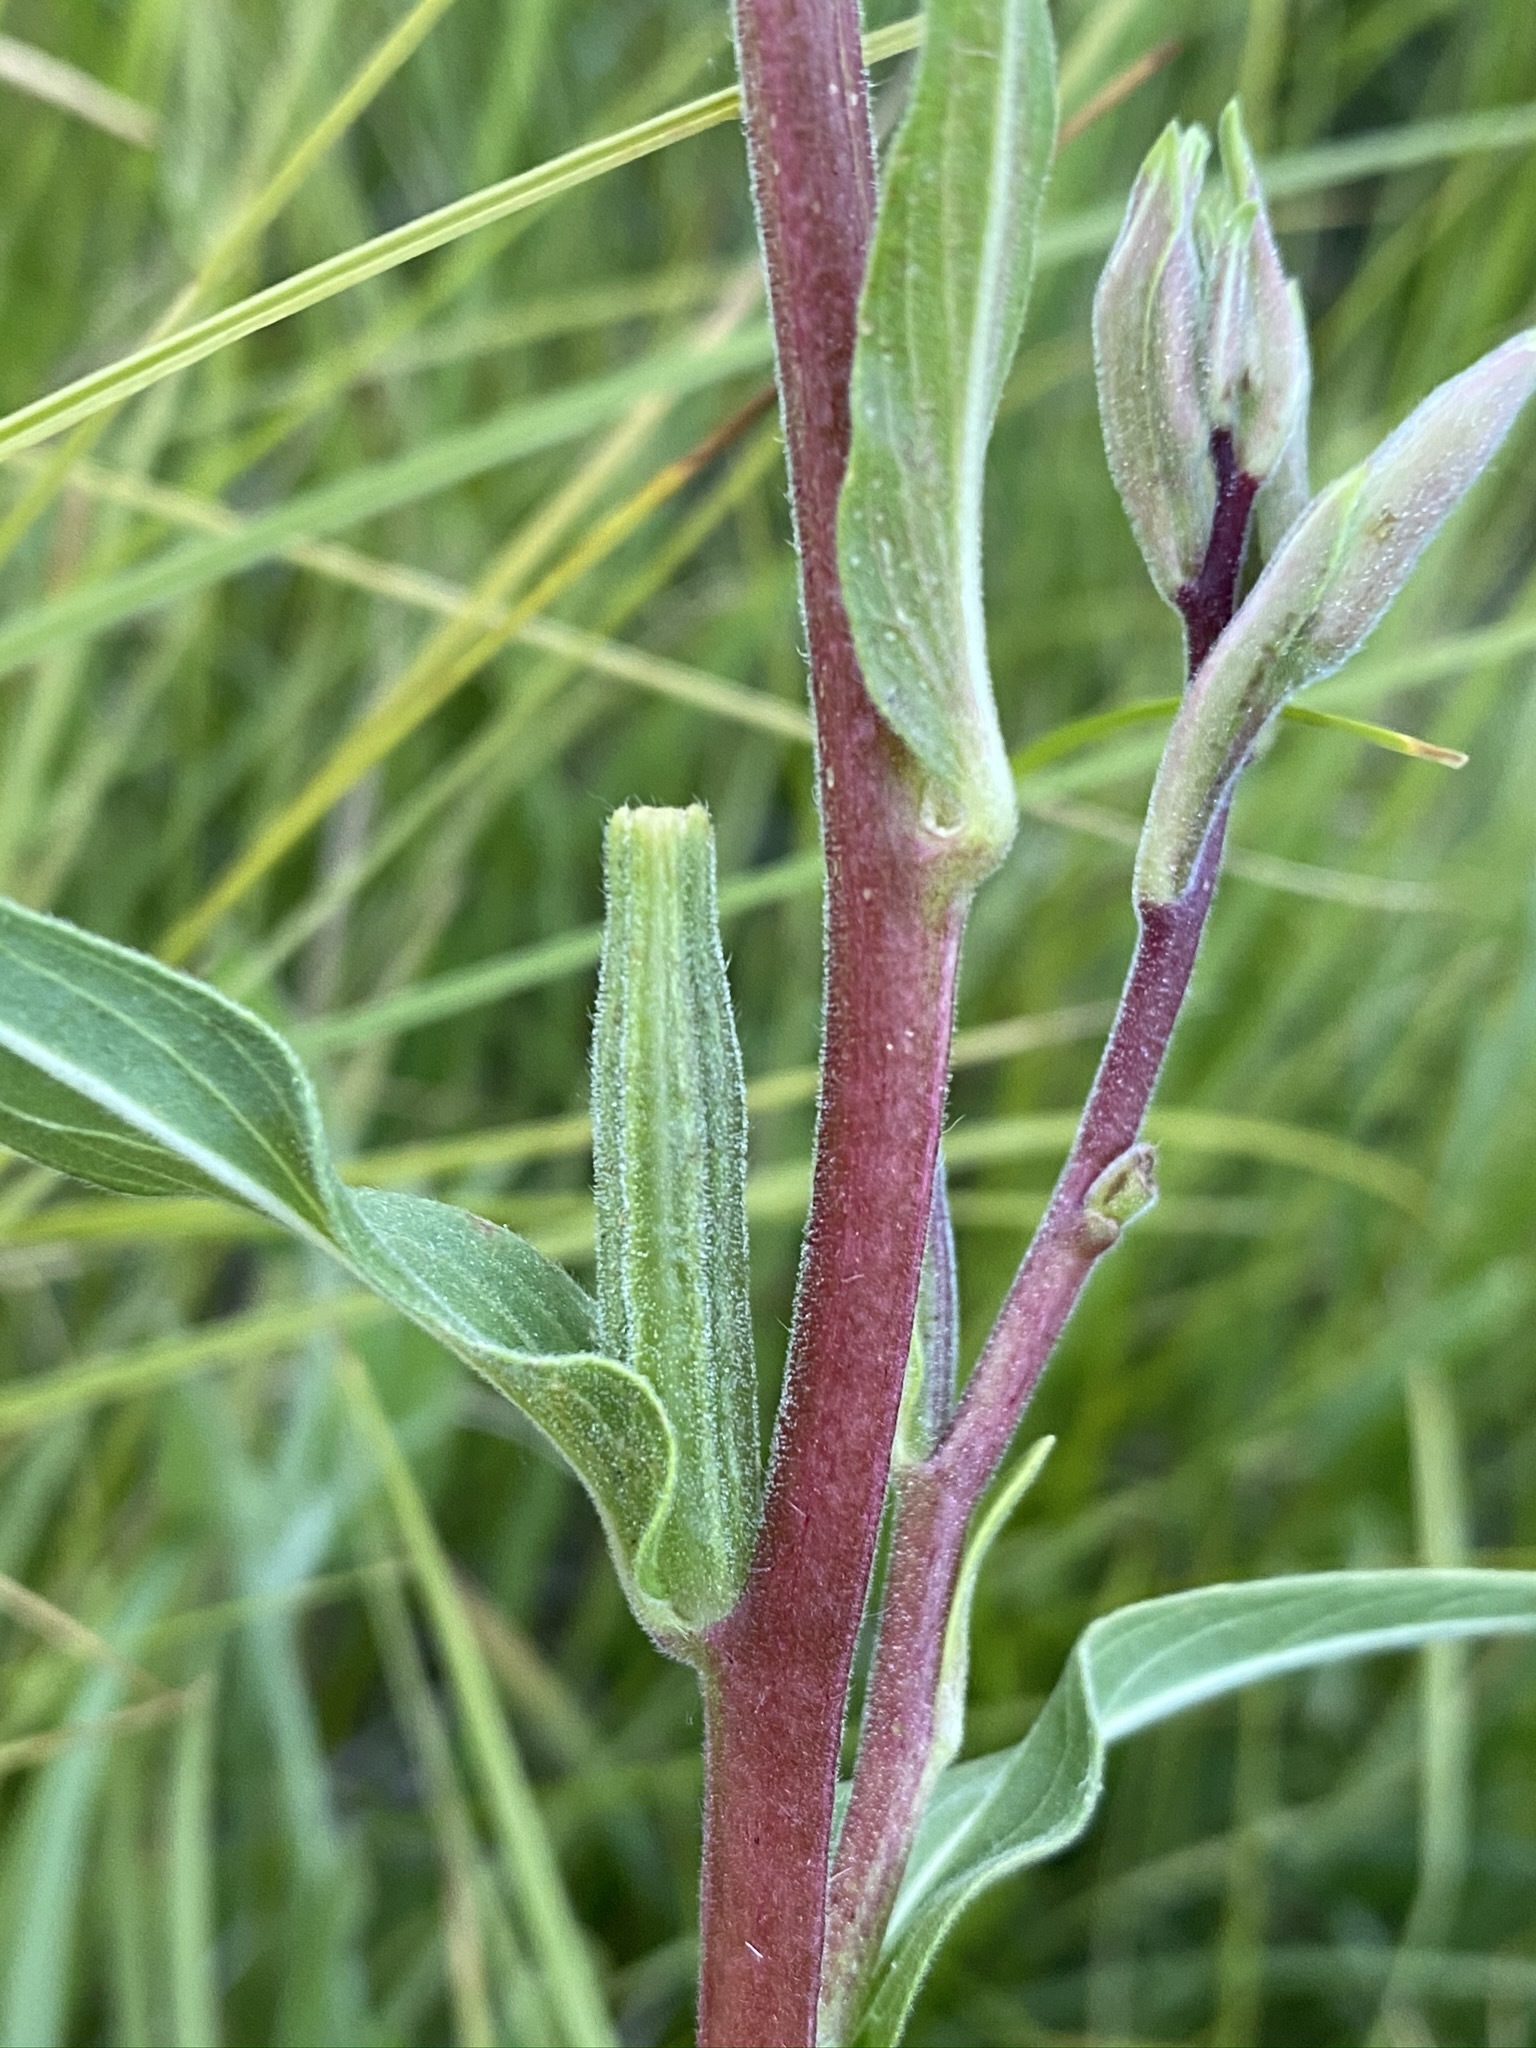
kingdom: Plantae
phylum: Tracheophyta
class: Magnoliopsida
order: Myrtales
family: Onagraceae
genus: Oenothera
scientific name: Oenothera elata
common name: Hooker's evening-primrose
